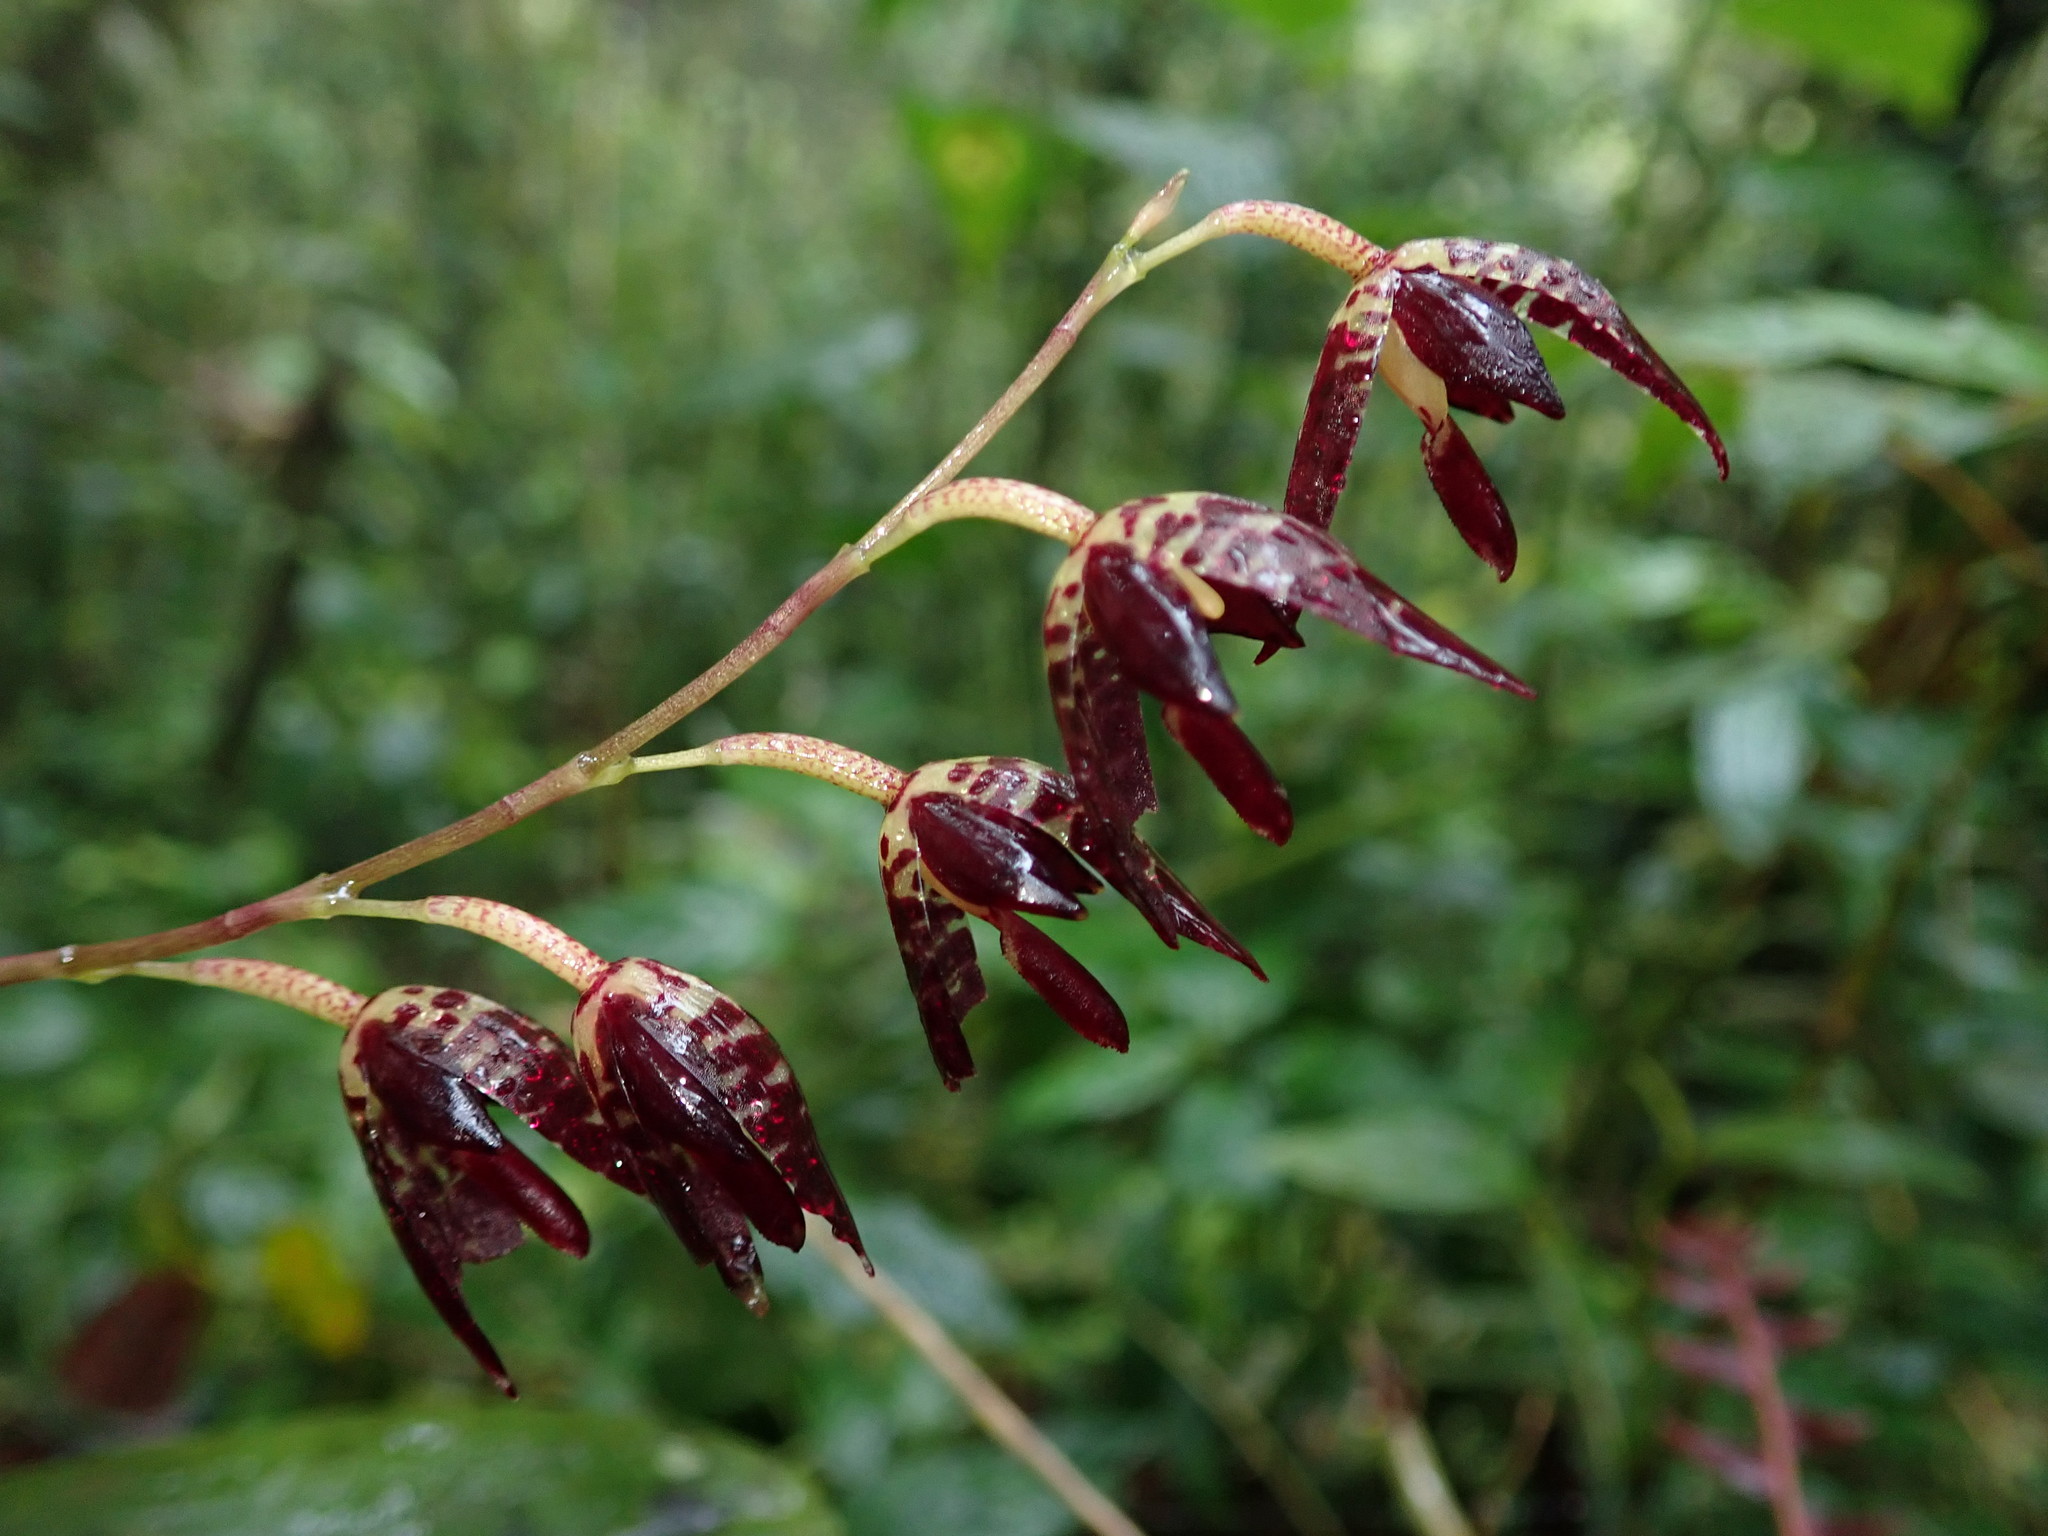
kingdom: Plantae
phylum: Tracheophyta
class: Liliopsida
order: Asparagales
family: Orchidaceae
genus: Pleurothallis
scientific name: Pleurothallis restrepioides
